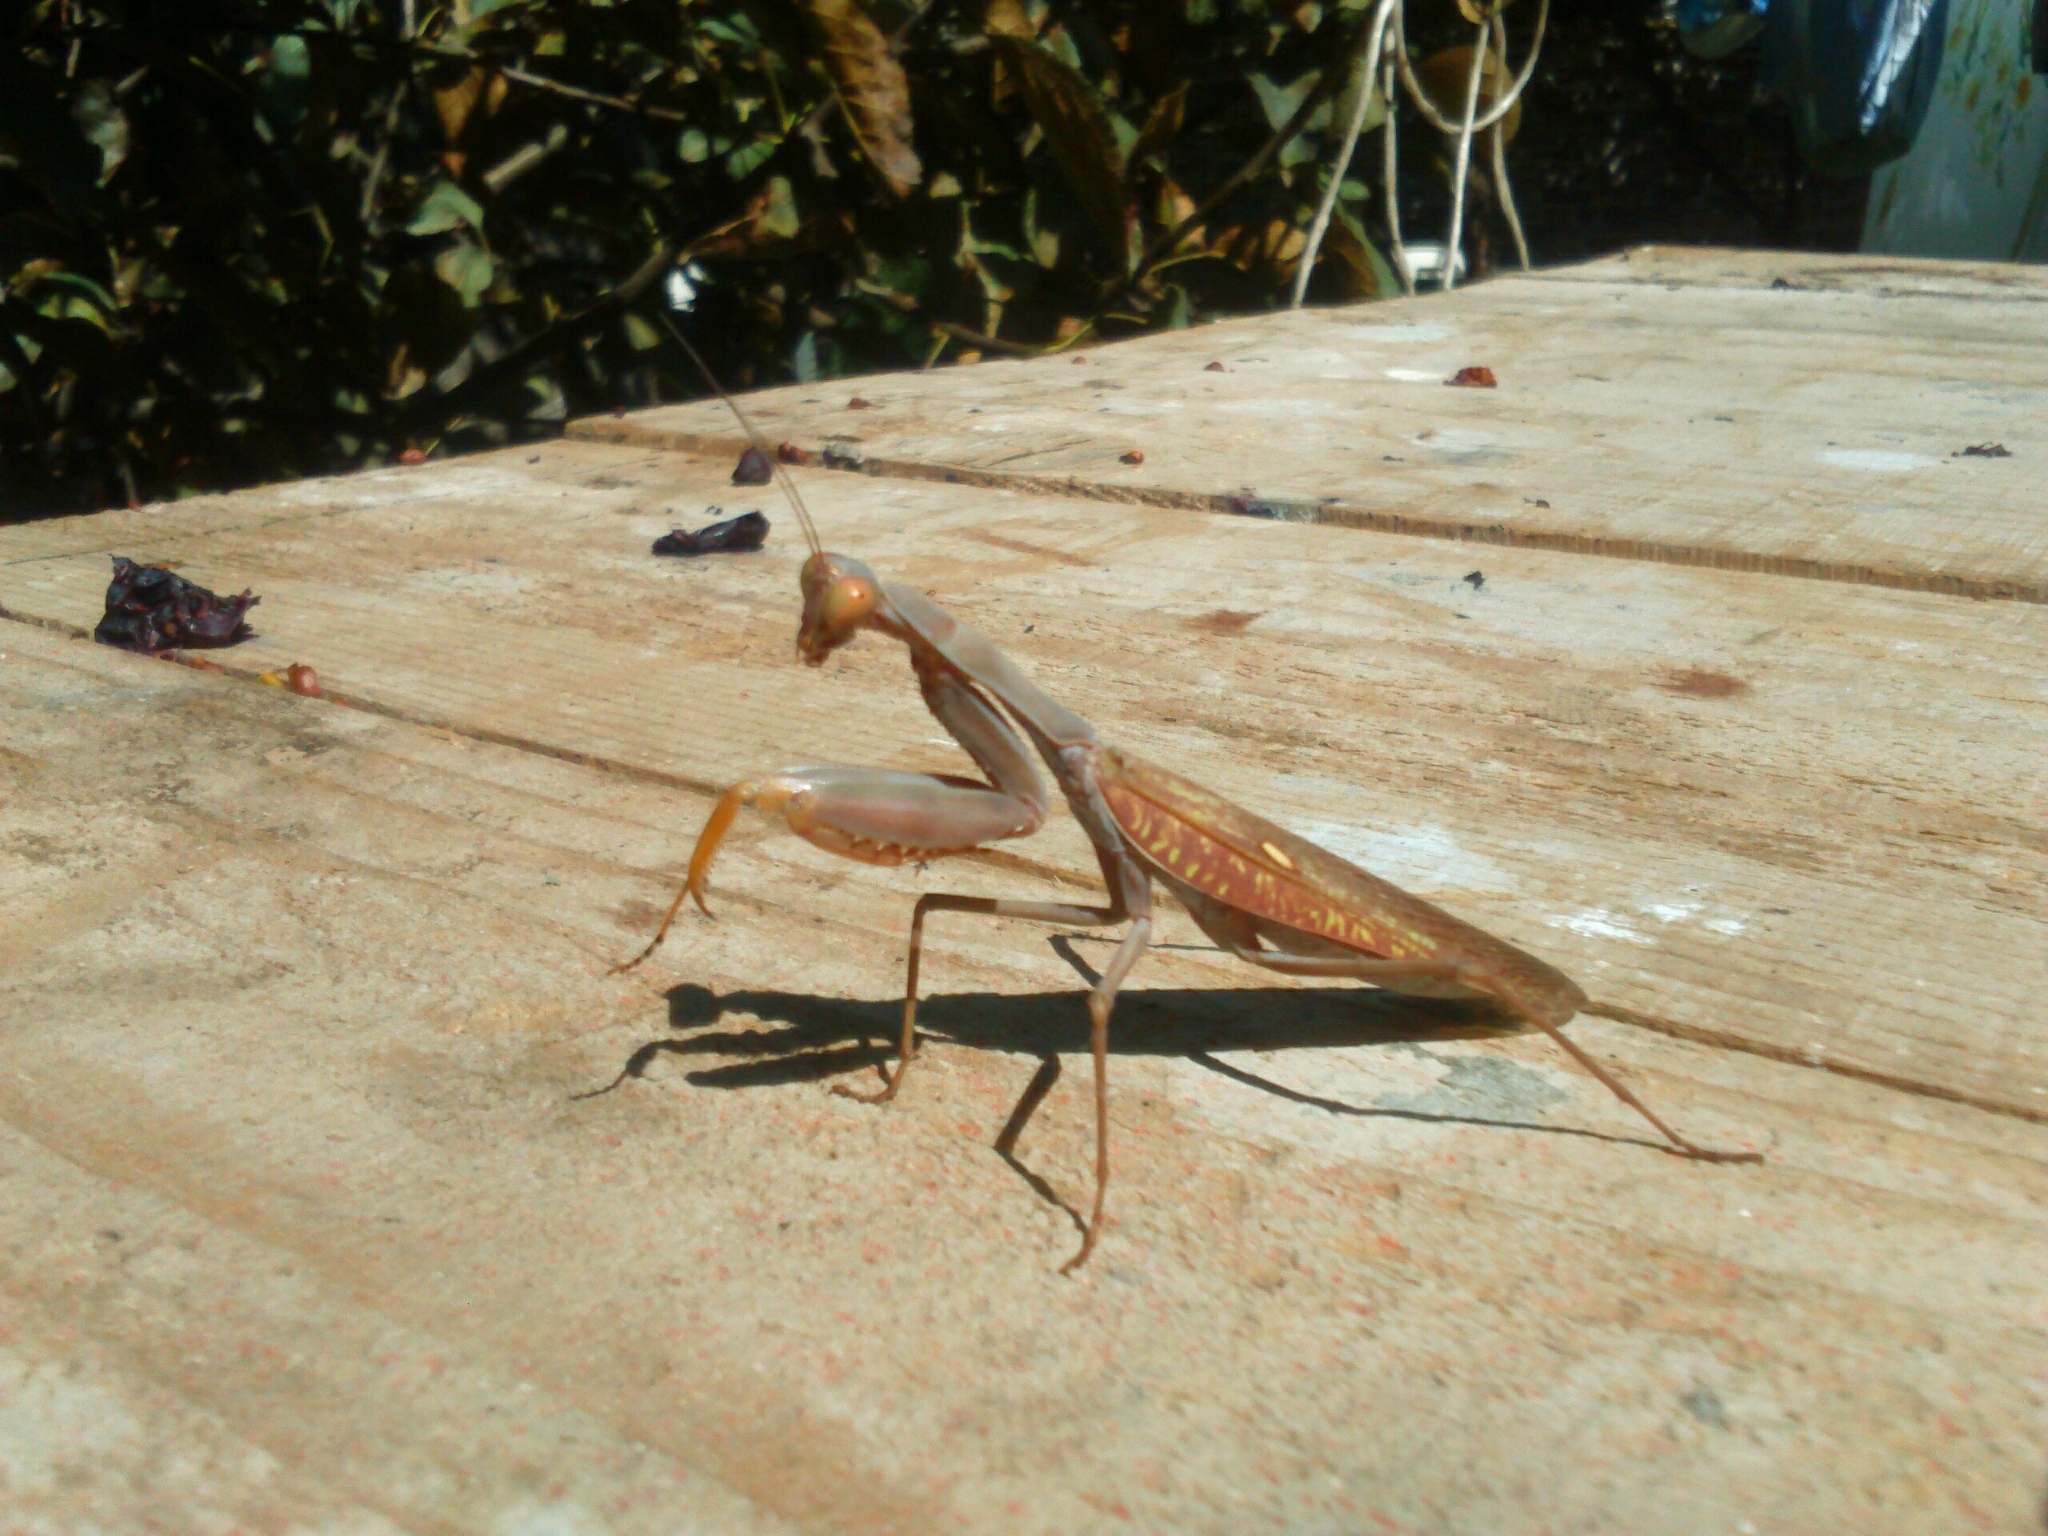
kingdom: Animalia
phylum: Arthropoda
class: Insecta
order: Mantodea
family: Mantidae
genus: Hierodula
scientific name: Hierodula transcaucasica
